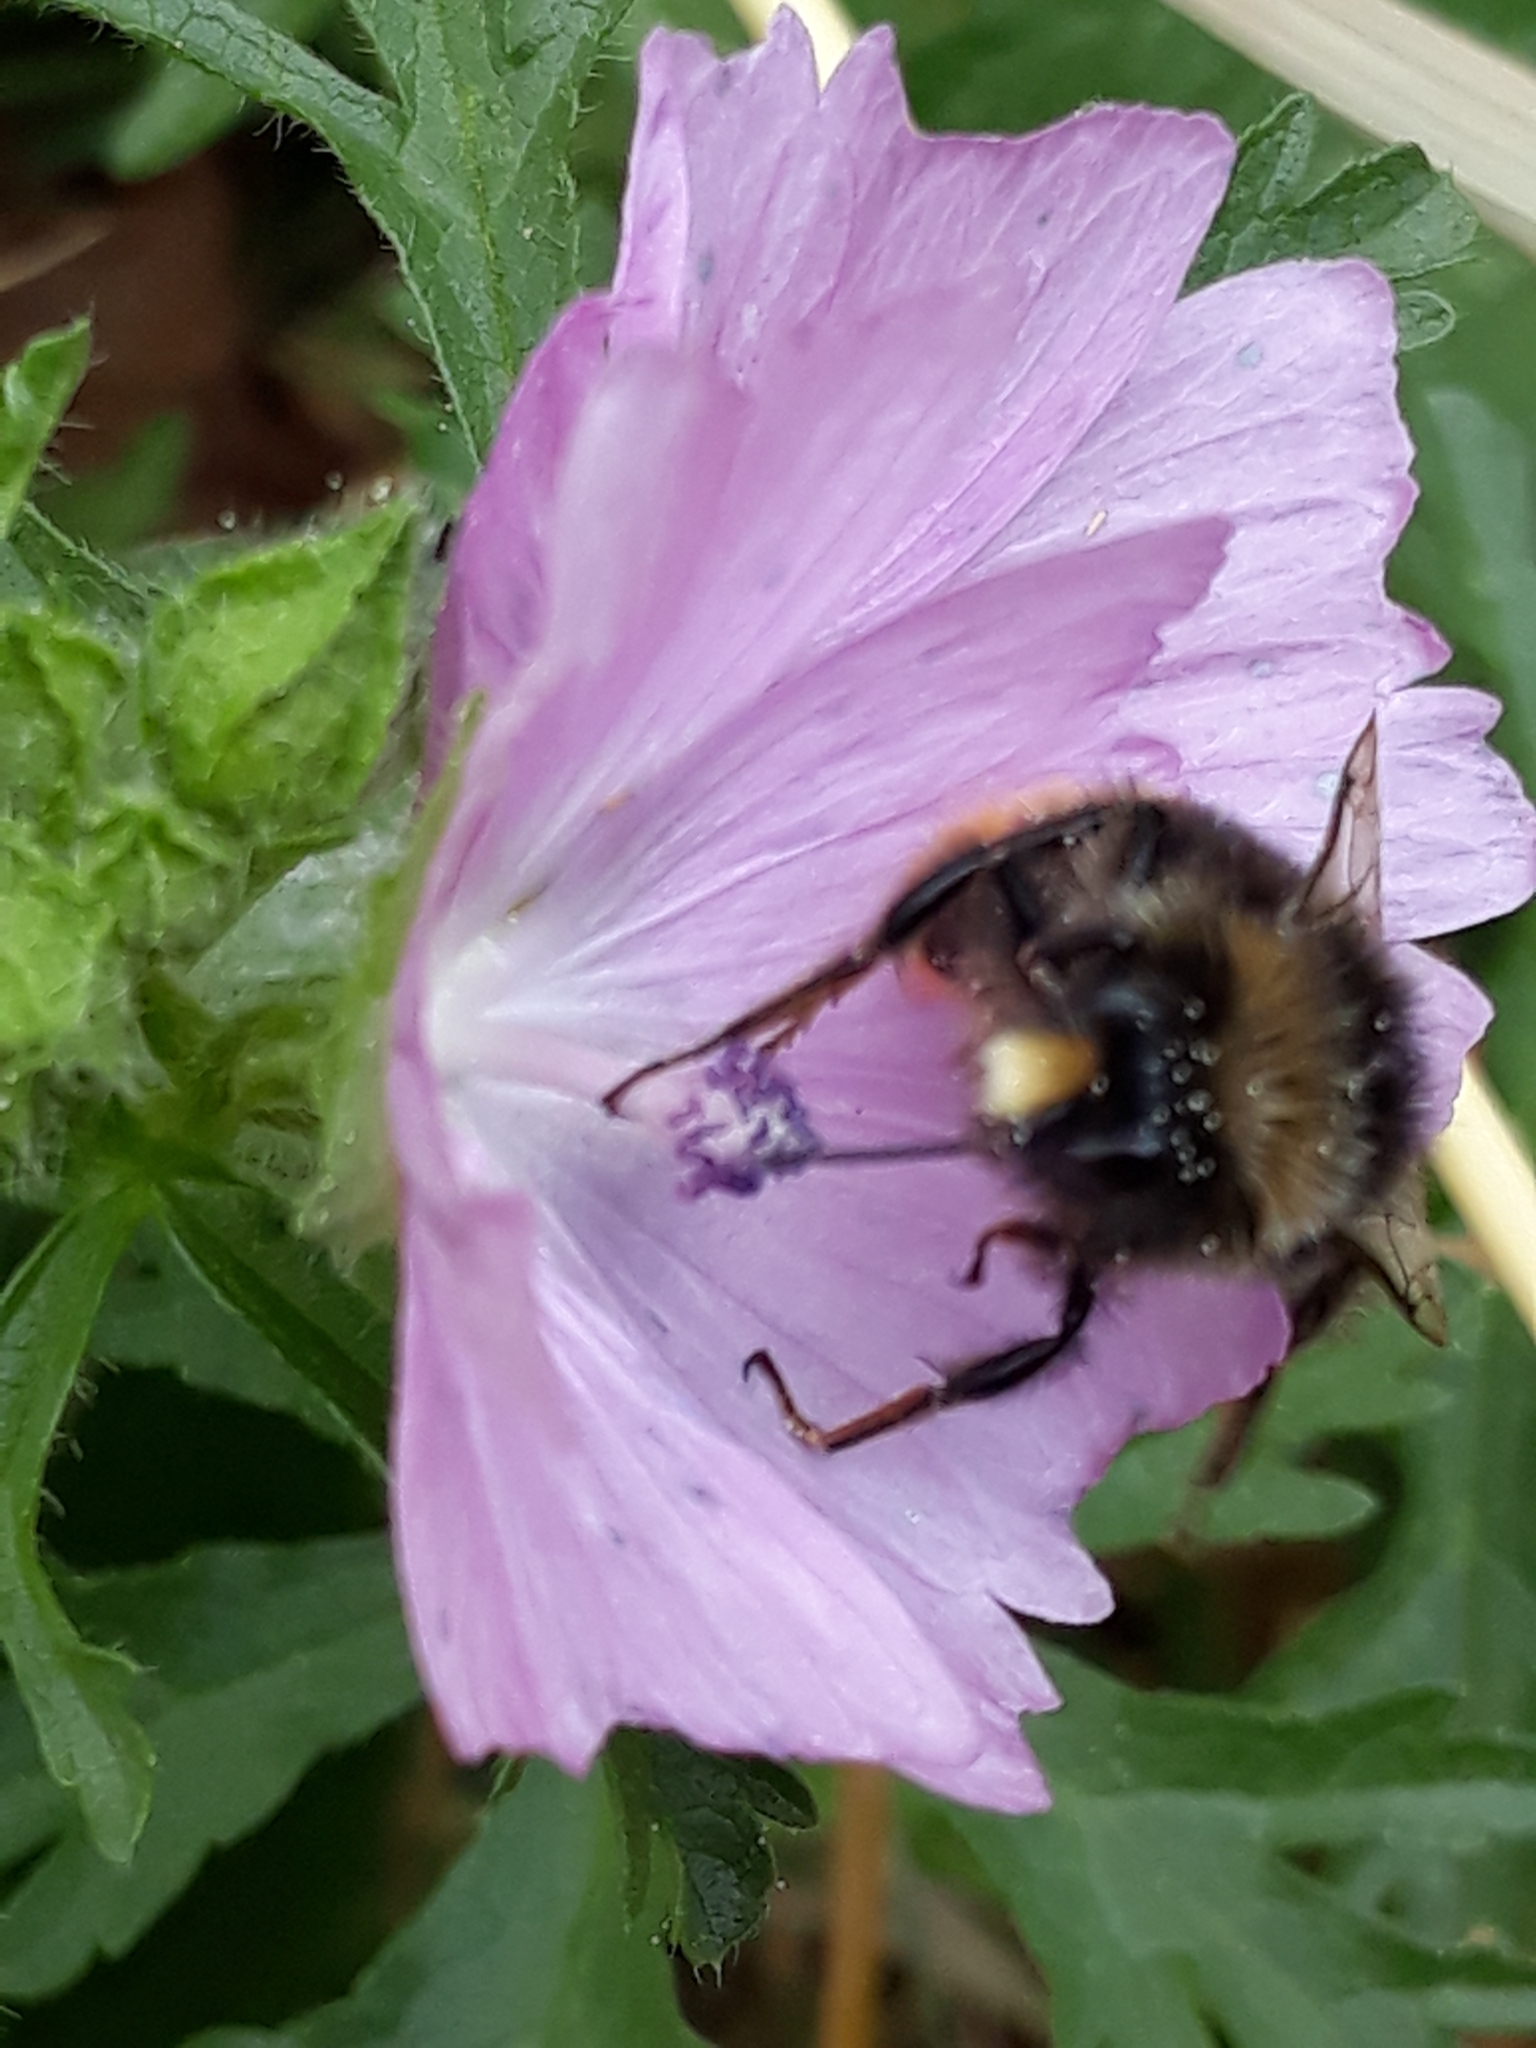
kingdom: Animalia
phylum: Arthropoda
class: Insecta
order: Hymenoptera
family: Apidae
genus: Bombus
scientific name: Bombus lapidarius
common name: Large red-tailed humble-bee
